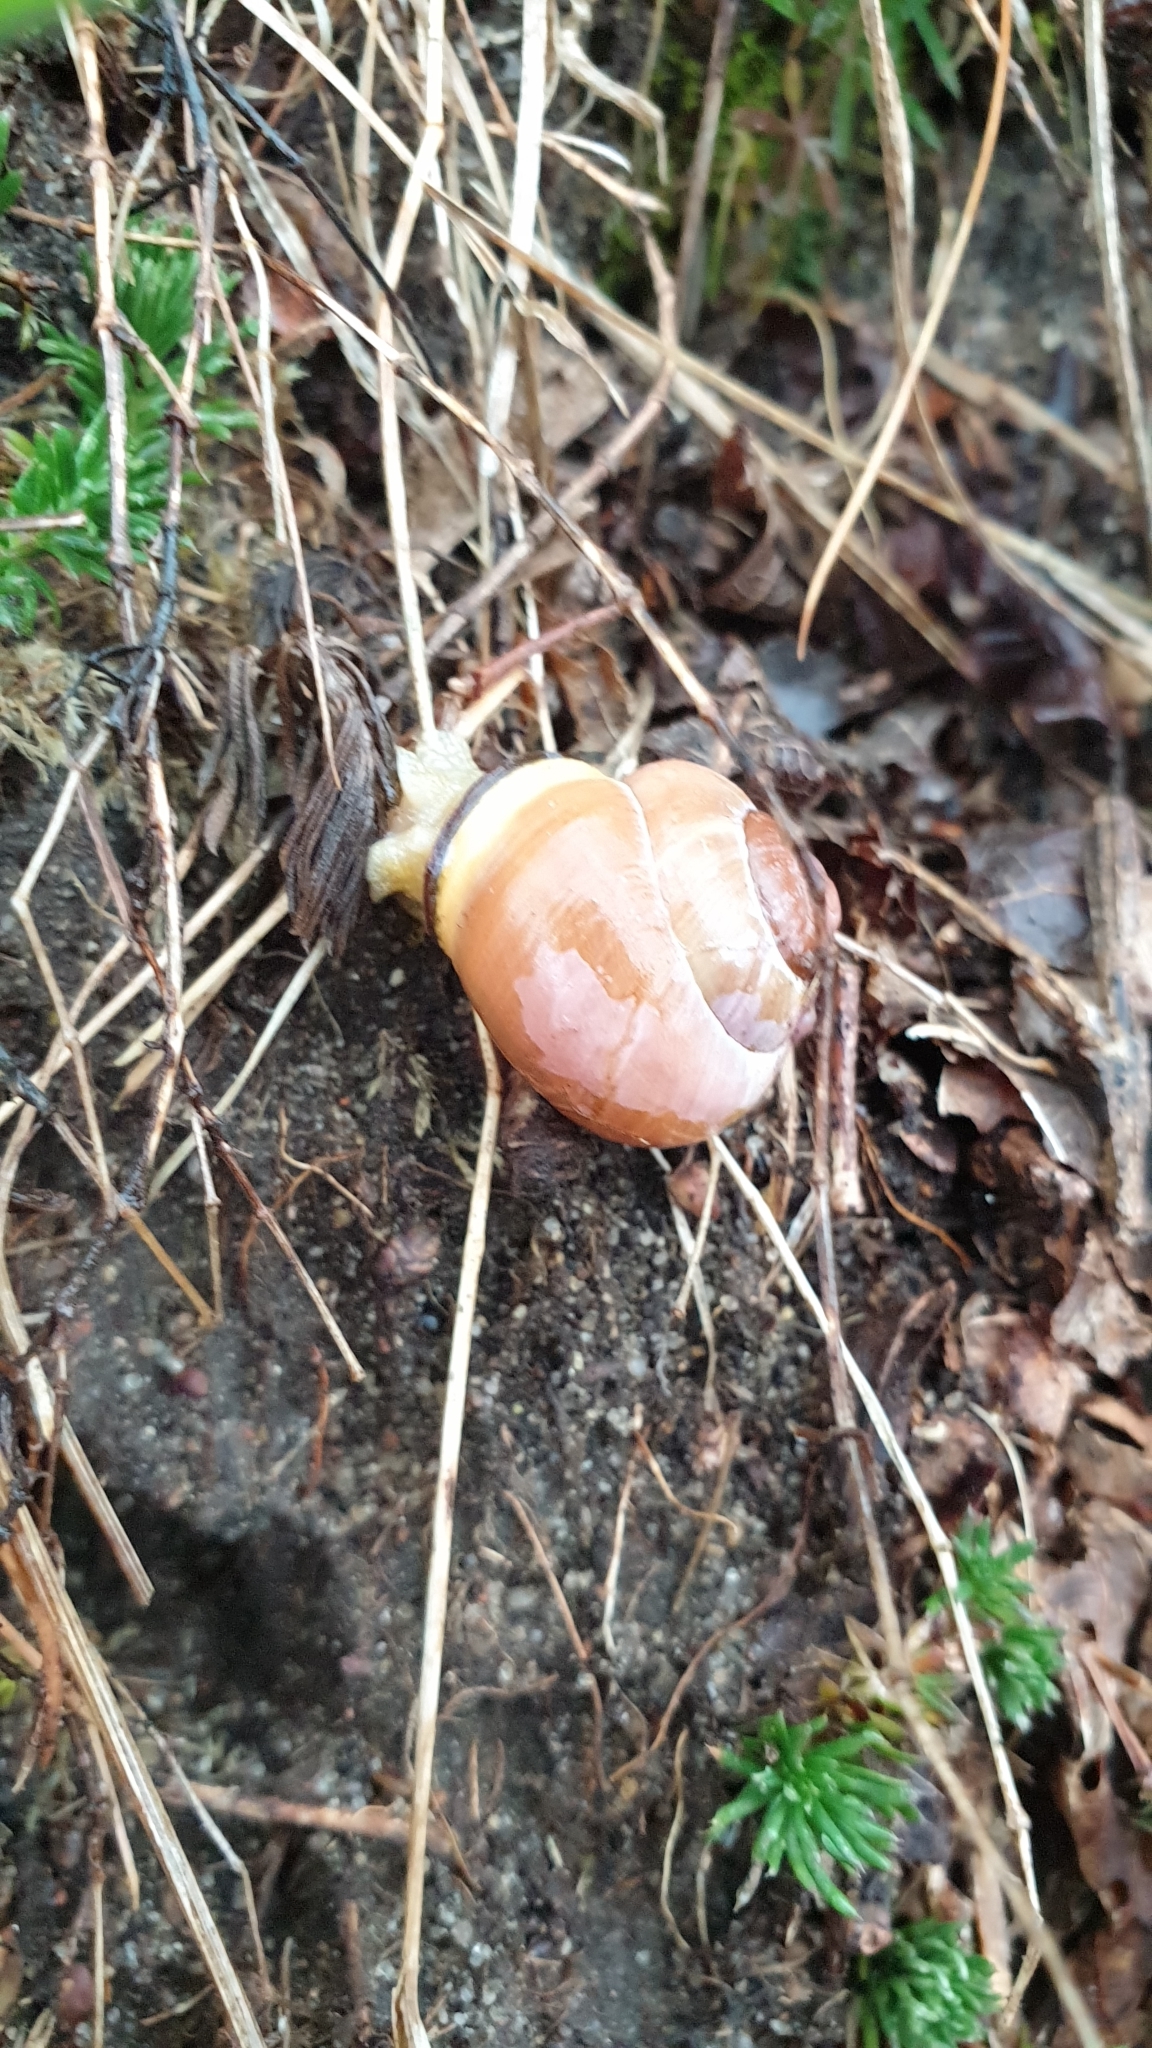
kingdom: Animalia
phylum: Mollusca
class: Gastropoda
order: Stylommatophora
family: Helicidae
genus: Cepaea
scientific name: Cepaea nemoralis
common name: Grovesnail
